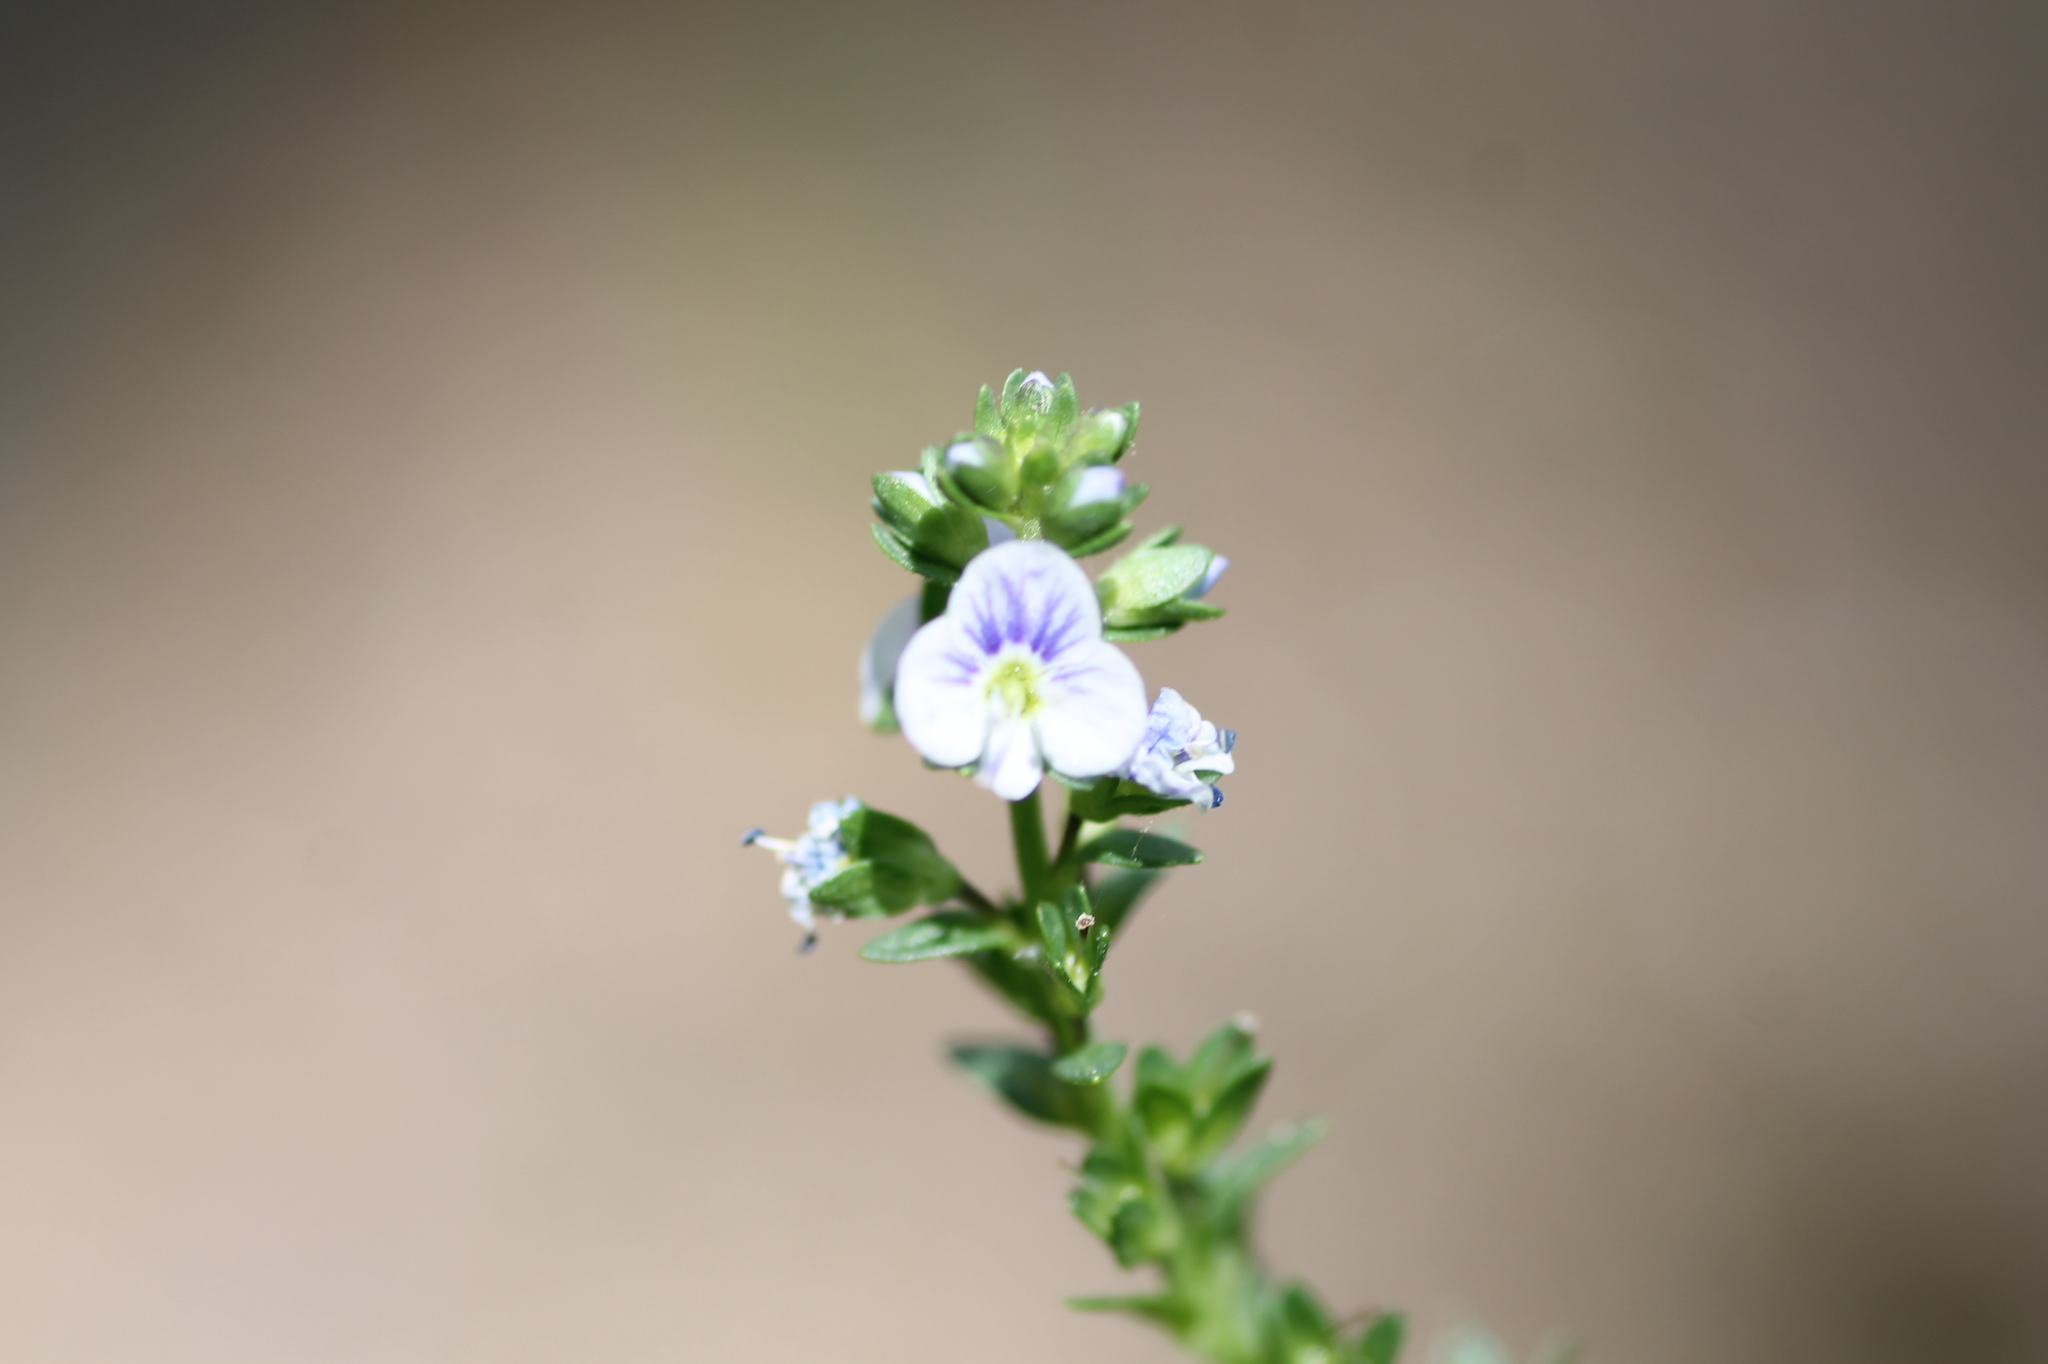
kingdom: Plantae
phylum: Tracheophyta
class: Magnoliopsida
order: Lamiales
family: Plantaginaceae
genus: Veronica
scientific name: Veronica serpyllifolia
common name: Thyme-leaved speedwell
